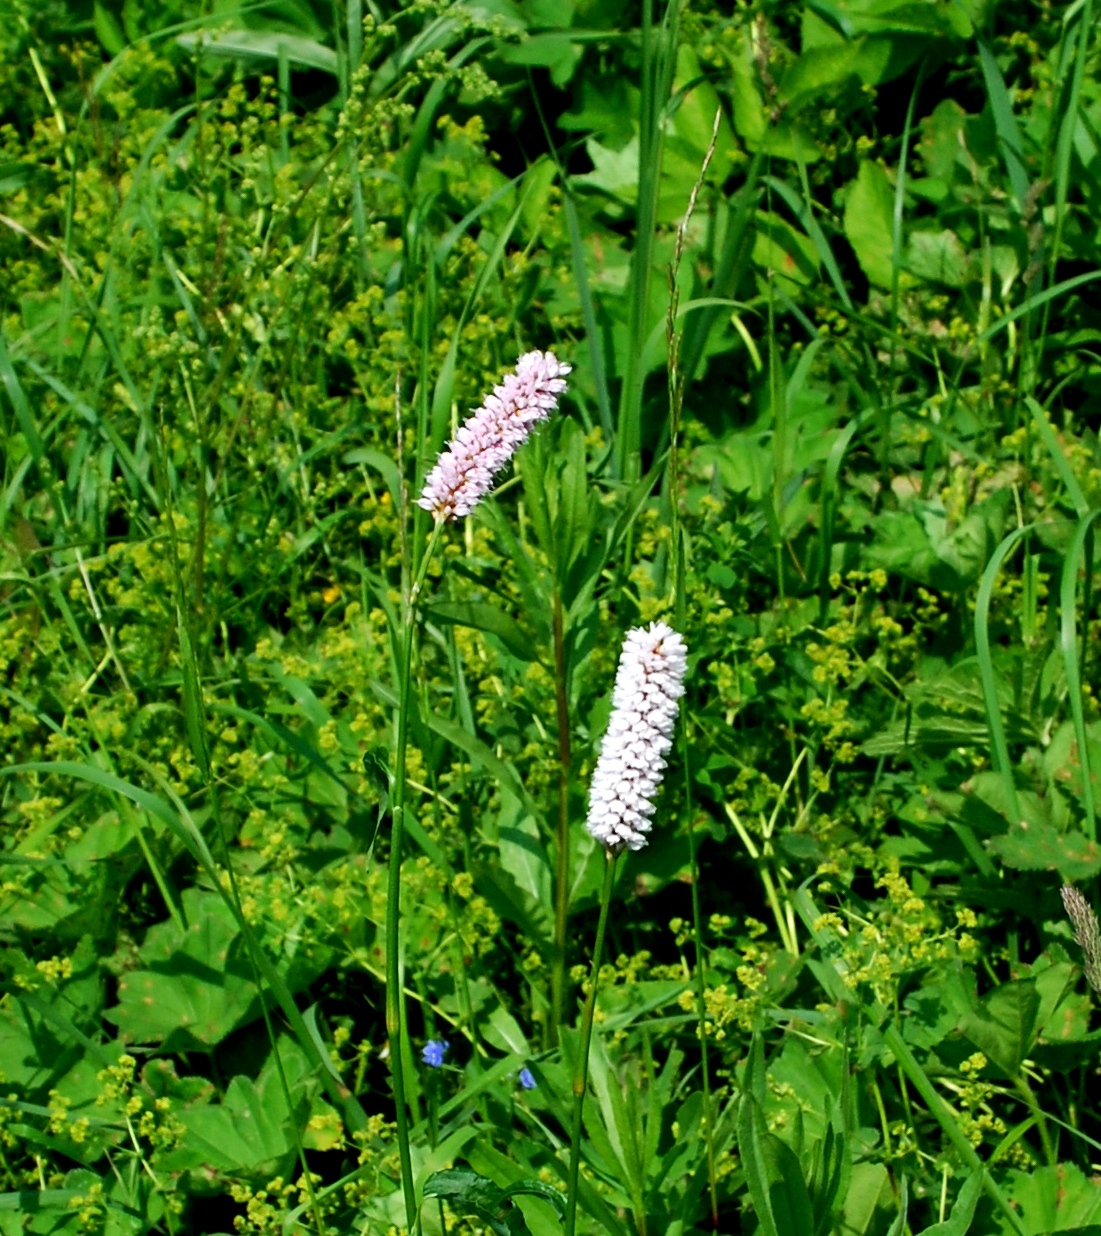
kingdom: Plantae
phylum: Tracheophyta
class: Magnoliopsida
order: Caryophyllales
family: Polygonaceae
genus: Bistorta
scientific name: Bistorta officinalis
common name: Common bistort
